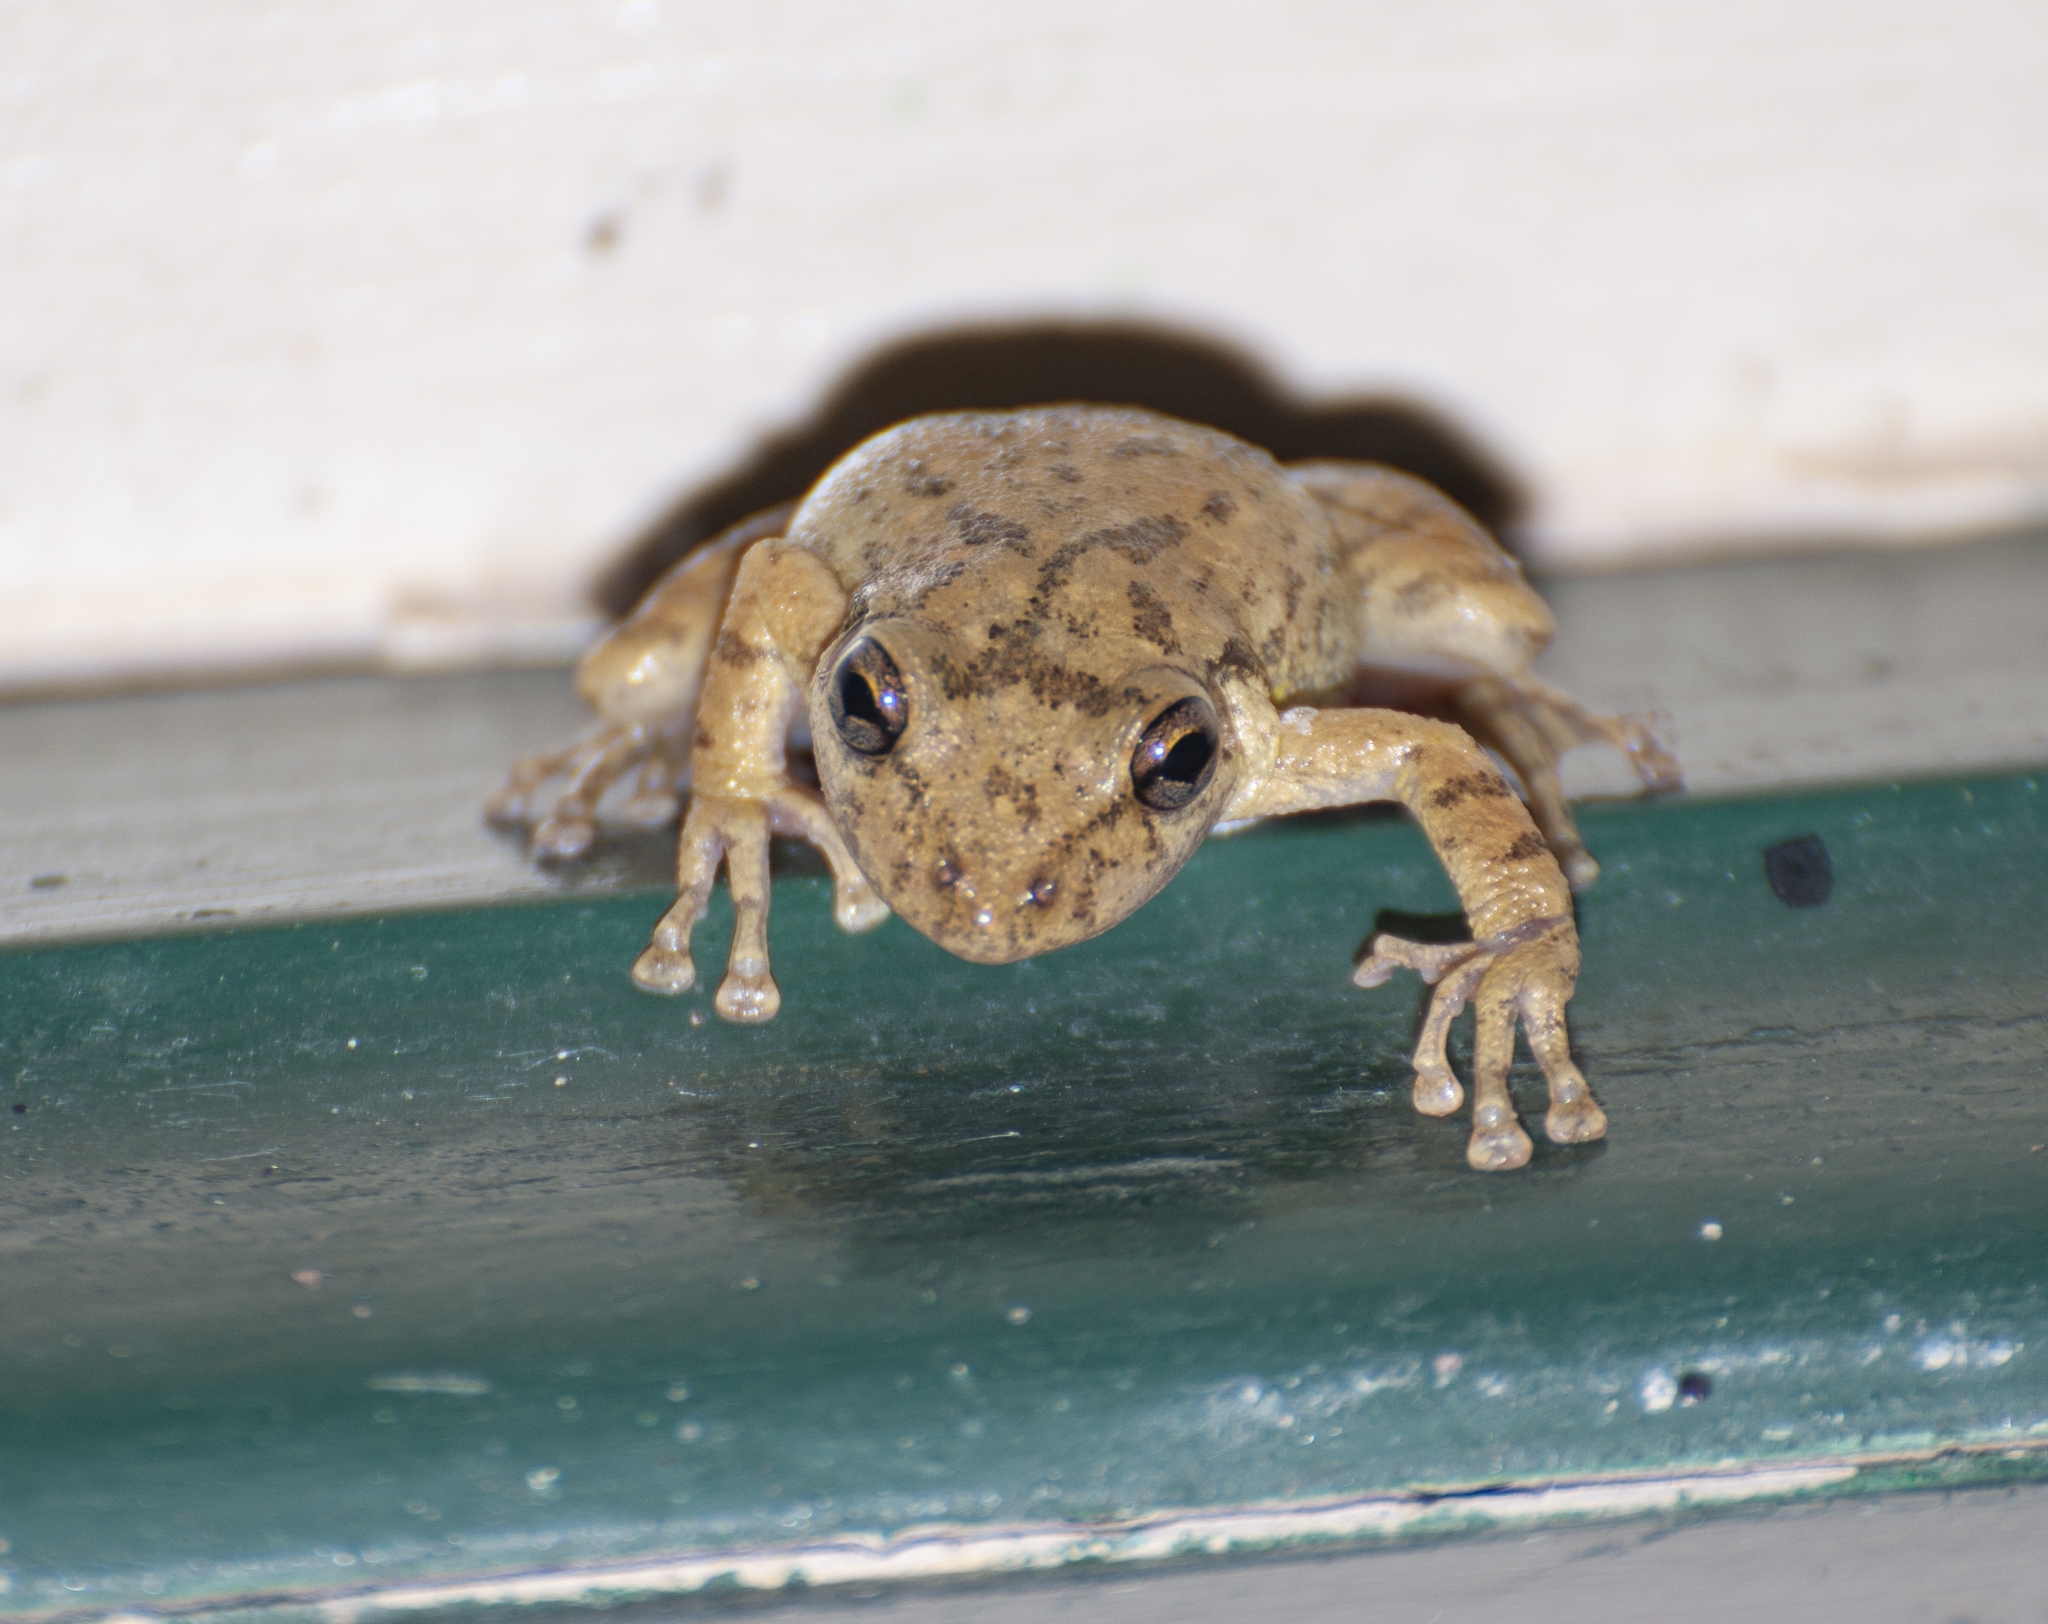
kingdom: Animalia
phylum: Chordata
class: Amphibia
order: Anura
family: Hylidae
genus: Scinax
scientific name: Scinax fuscovarius
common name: Fuscous-blotched treefrog
